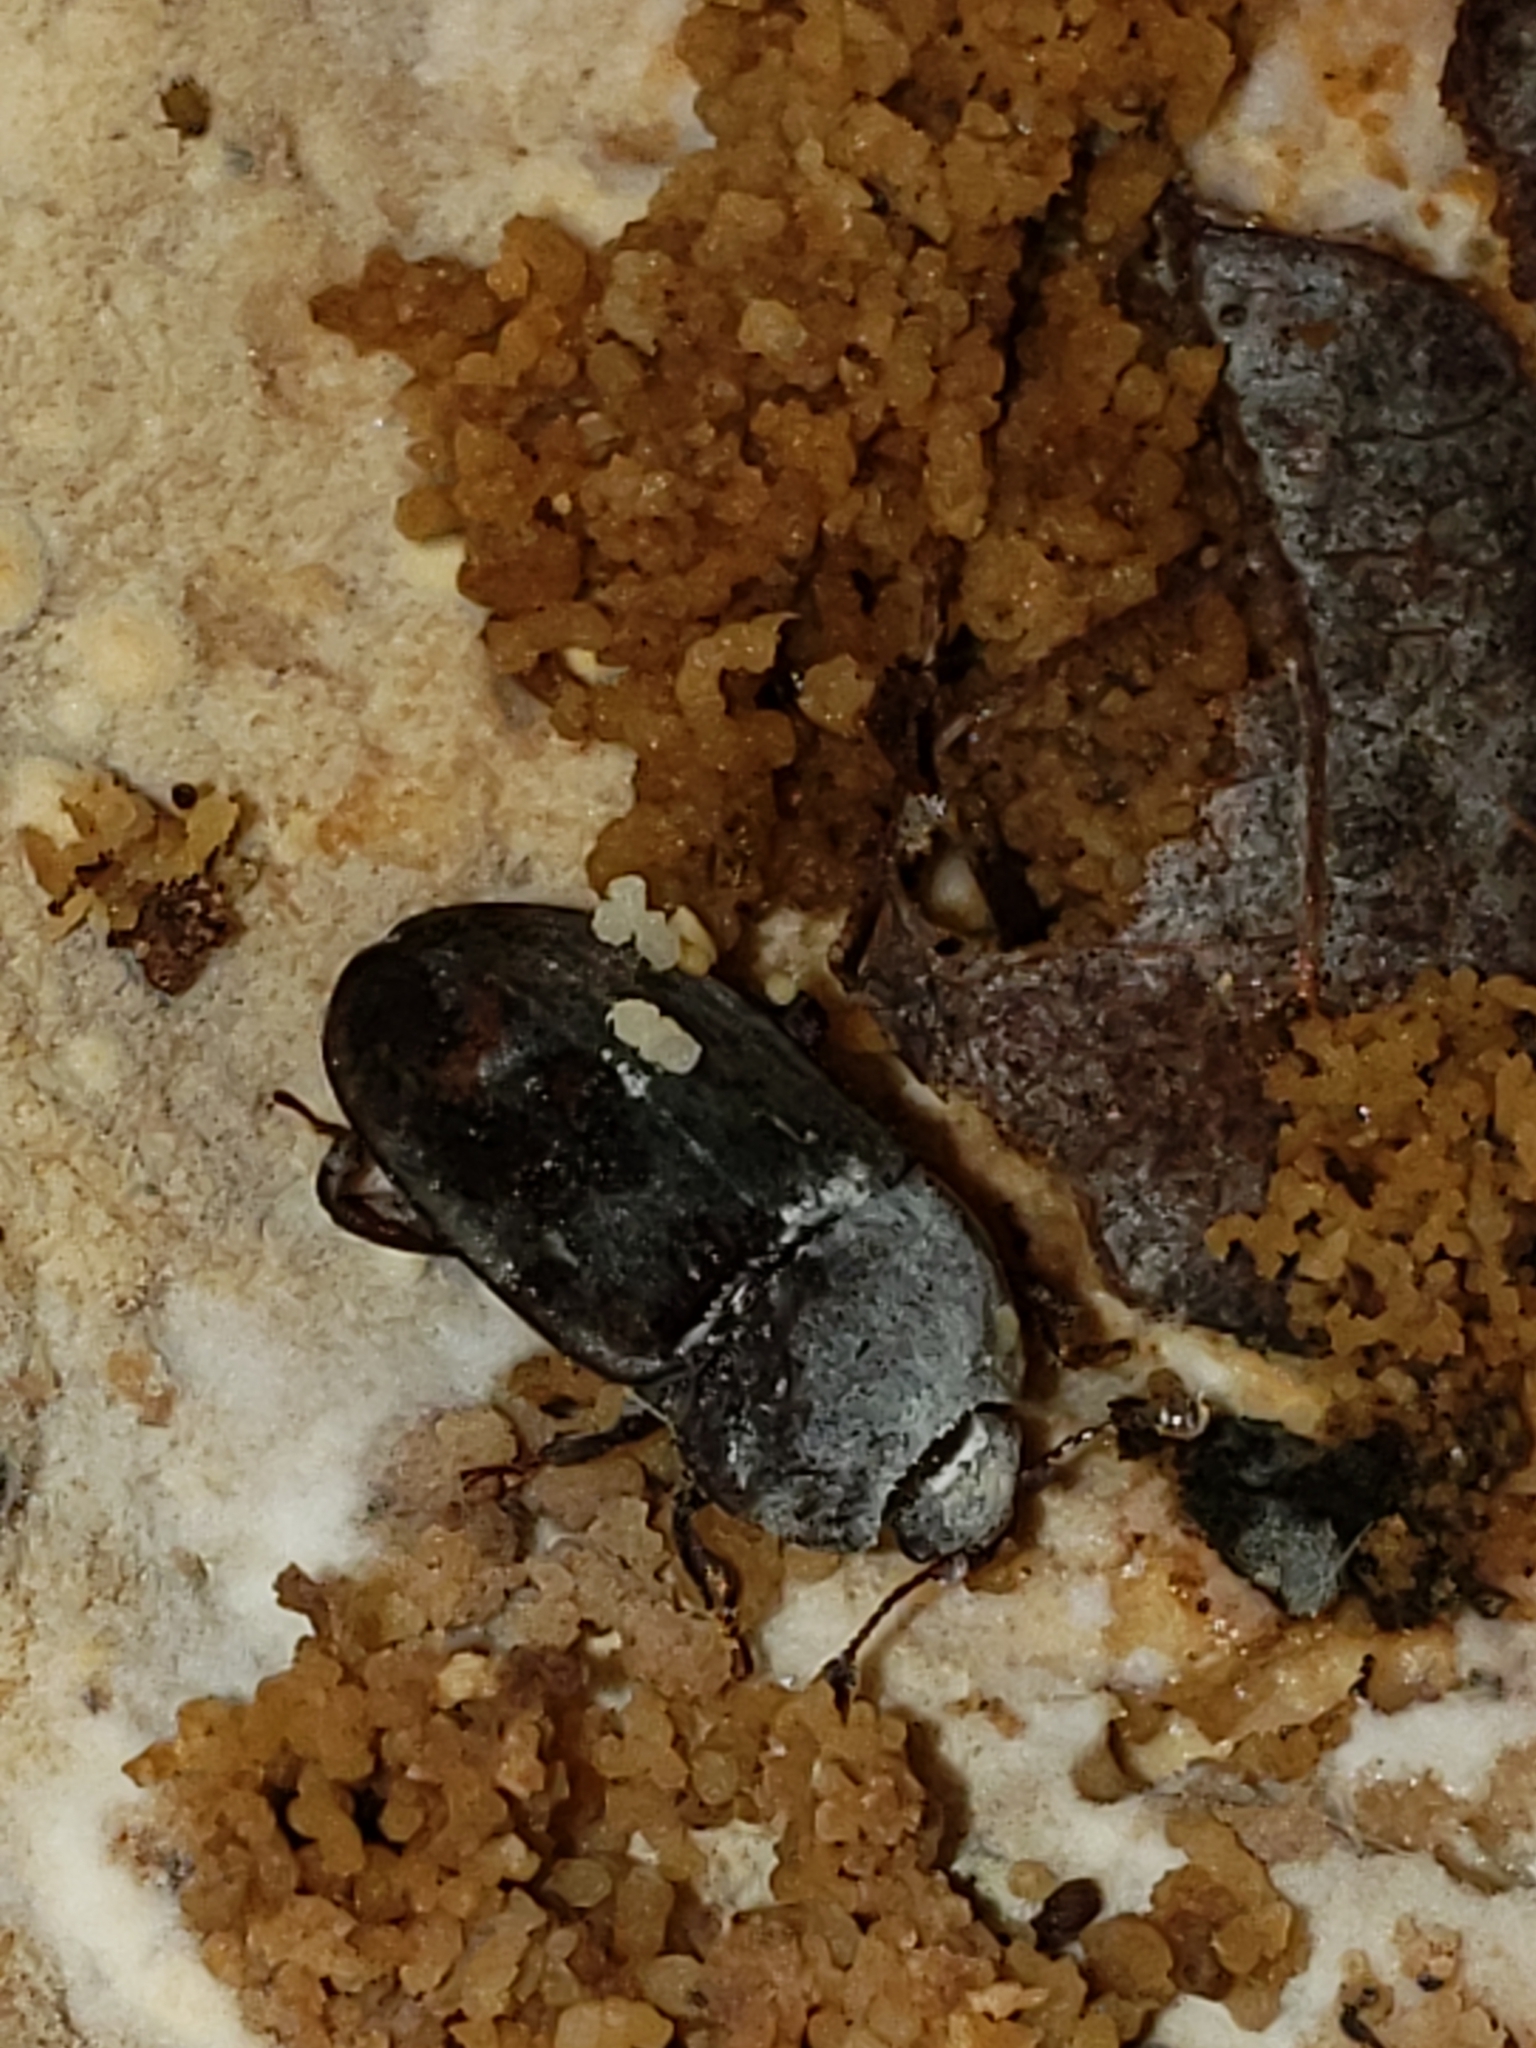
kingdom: Animalia
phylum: Arthropoda
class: Insecta
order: Coleoptera
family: Nitidulidae
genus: Phenolia
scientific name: Phenolia grossa
